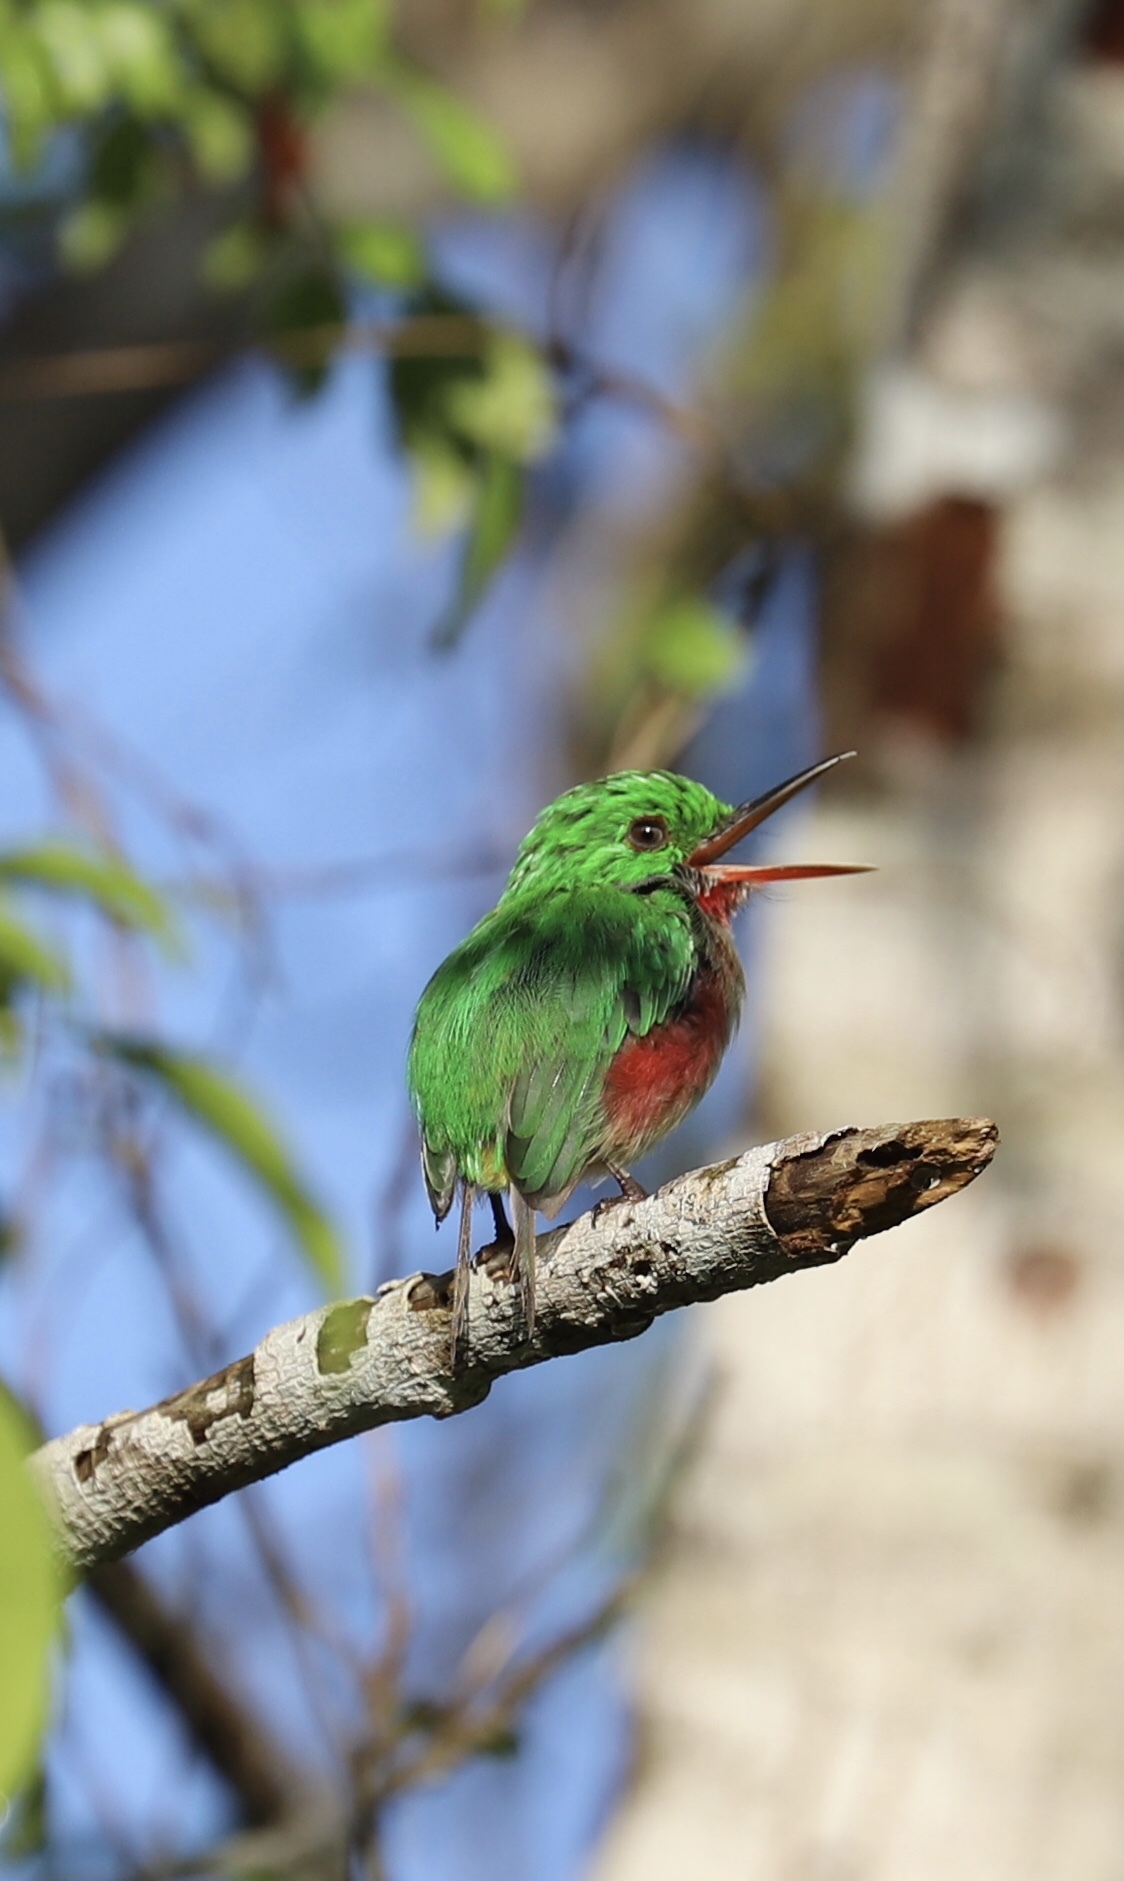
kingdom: Animalia
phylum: Chordata
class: Aves
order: Coraciiformes
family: Todidae
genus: Todus
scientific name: Todus subulatus
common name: Broad-billed tody
